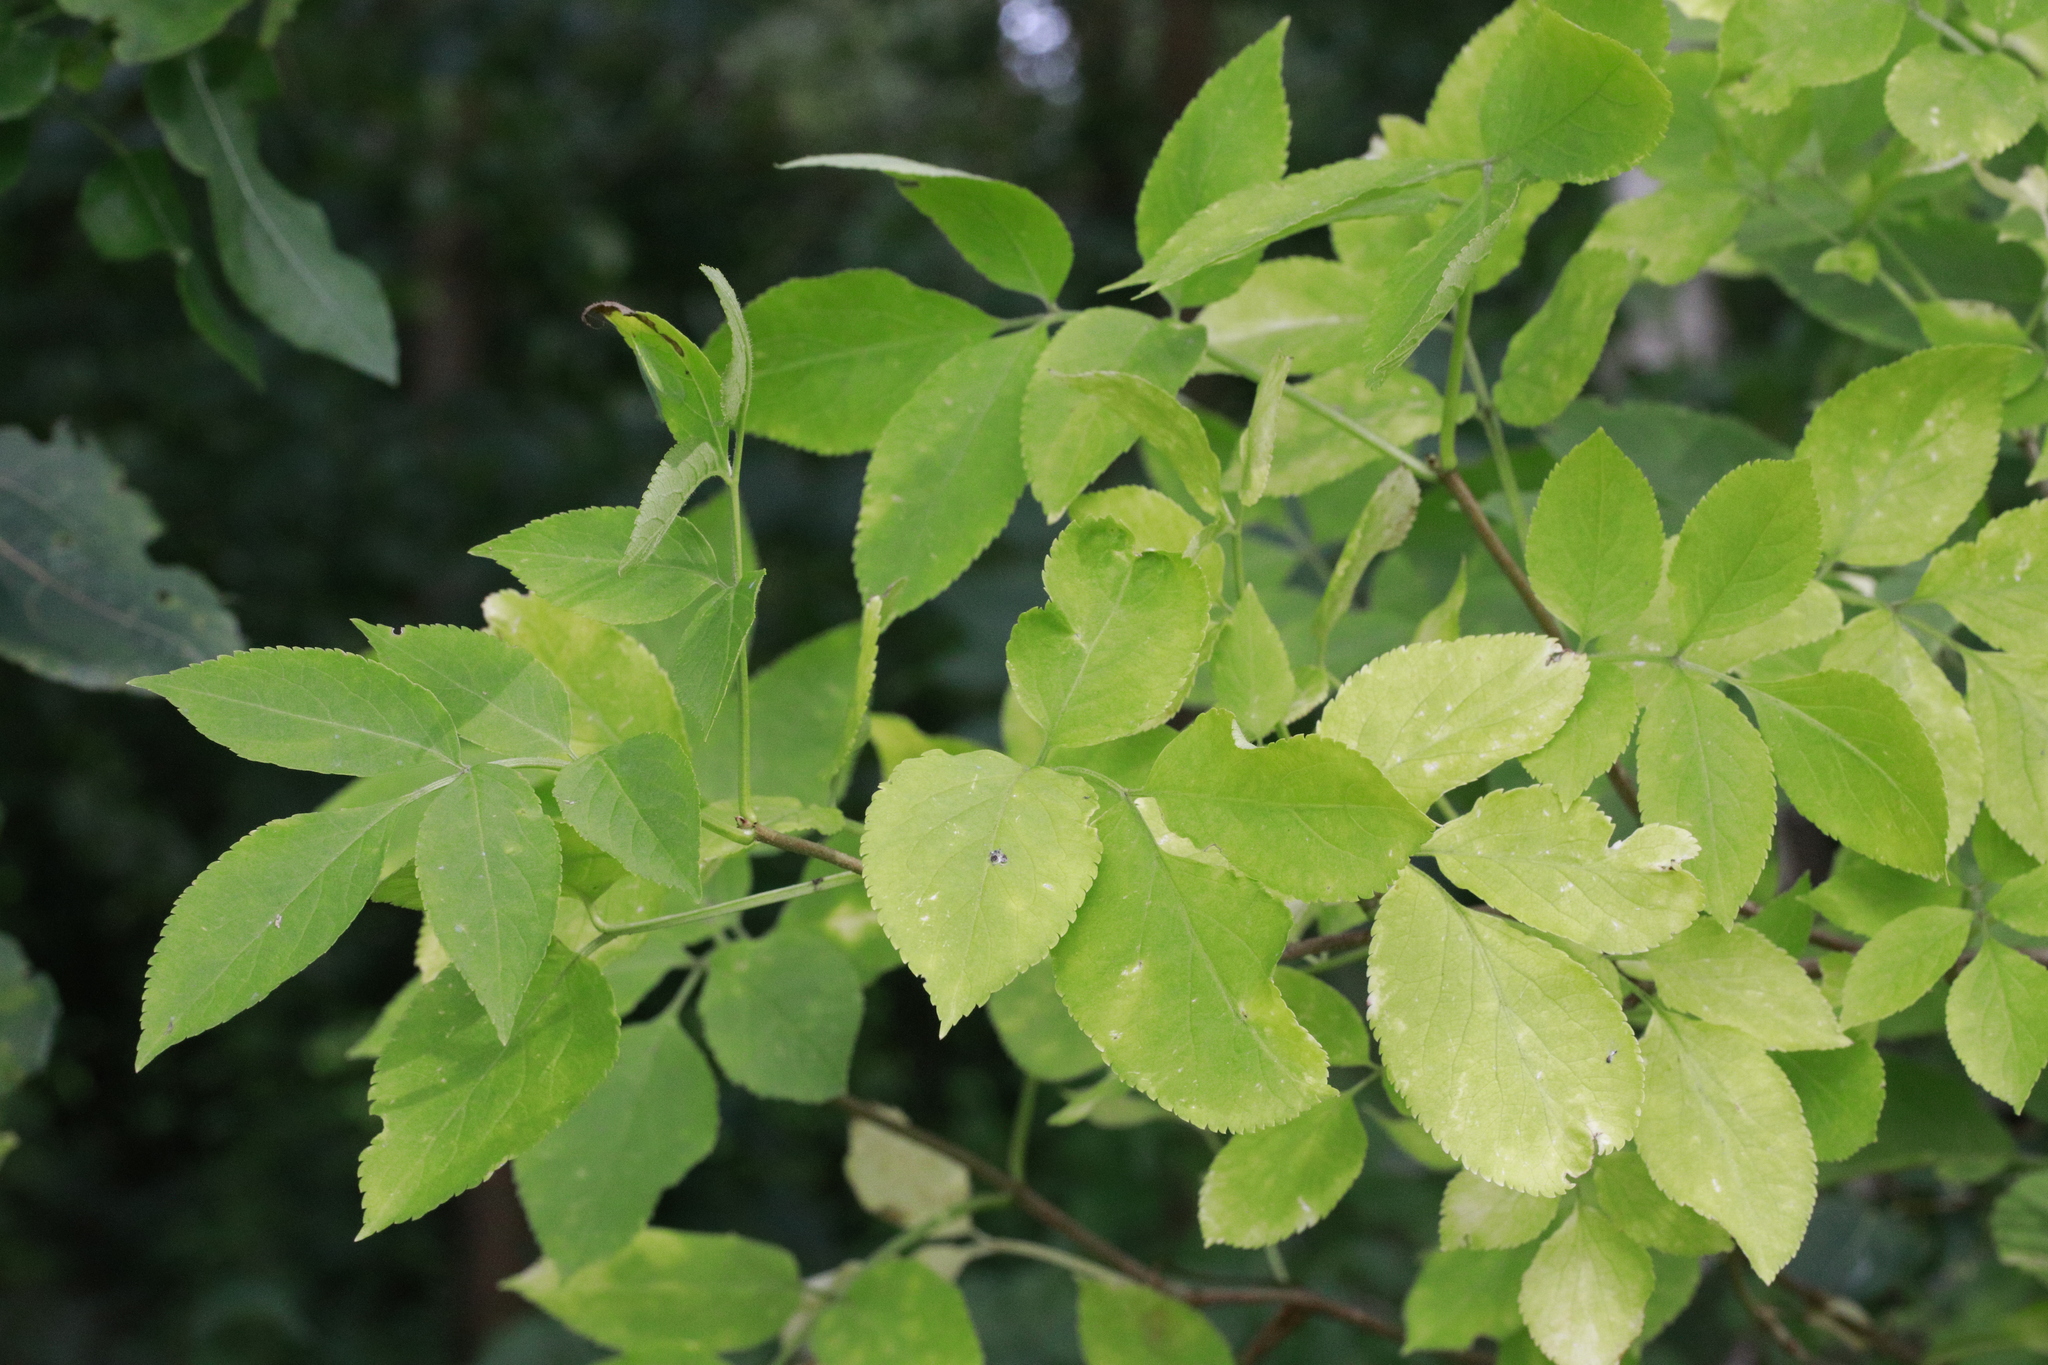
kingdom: Plantae
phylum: Tracheophyta
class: Magnoliopsida
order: Dipsacales
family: Viburnaceae
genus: Sambucus
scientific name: Sambucus nigra
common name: Elder
